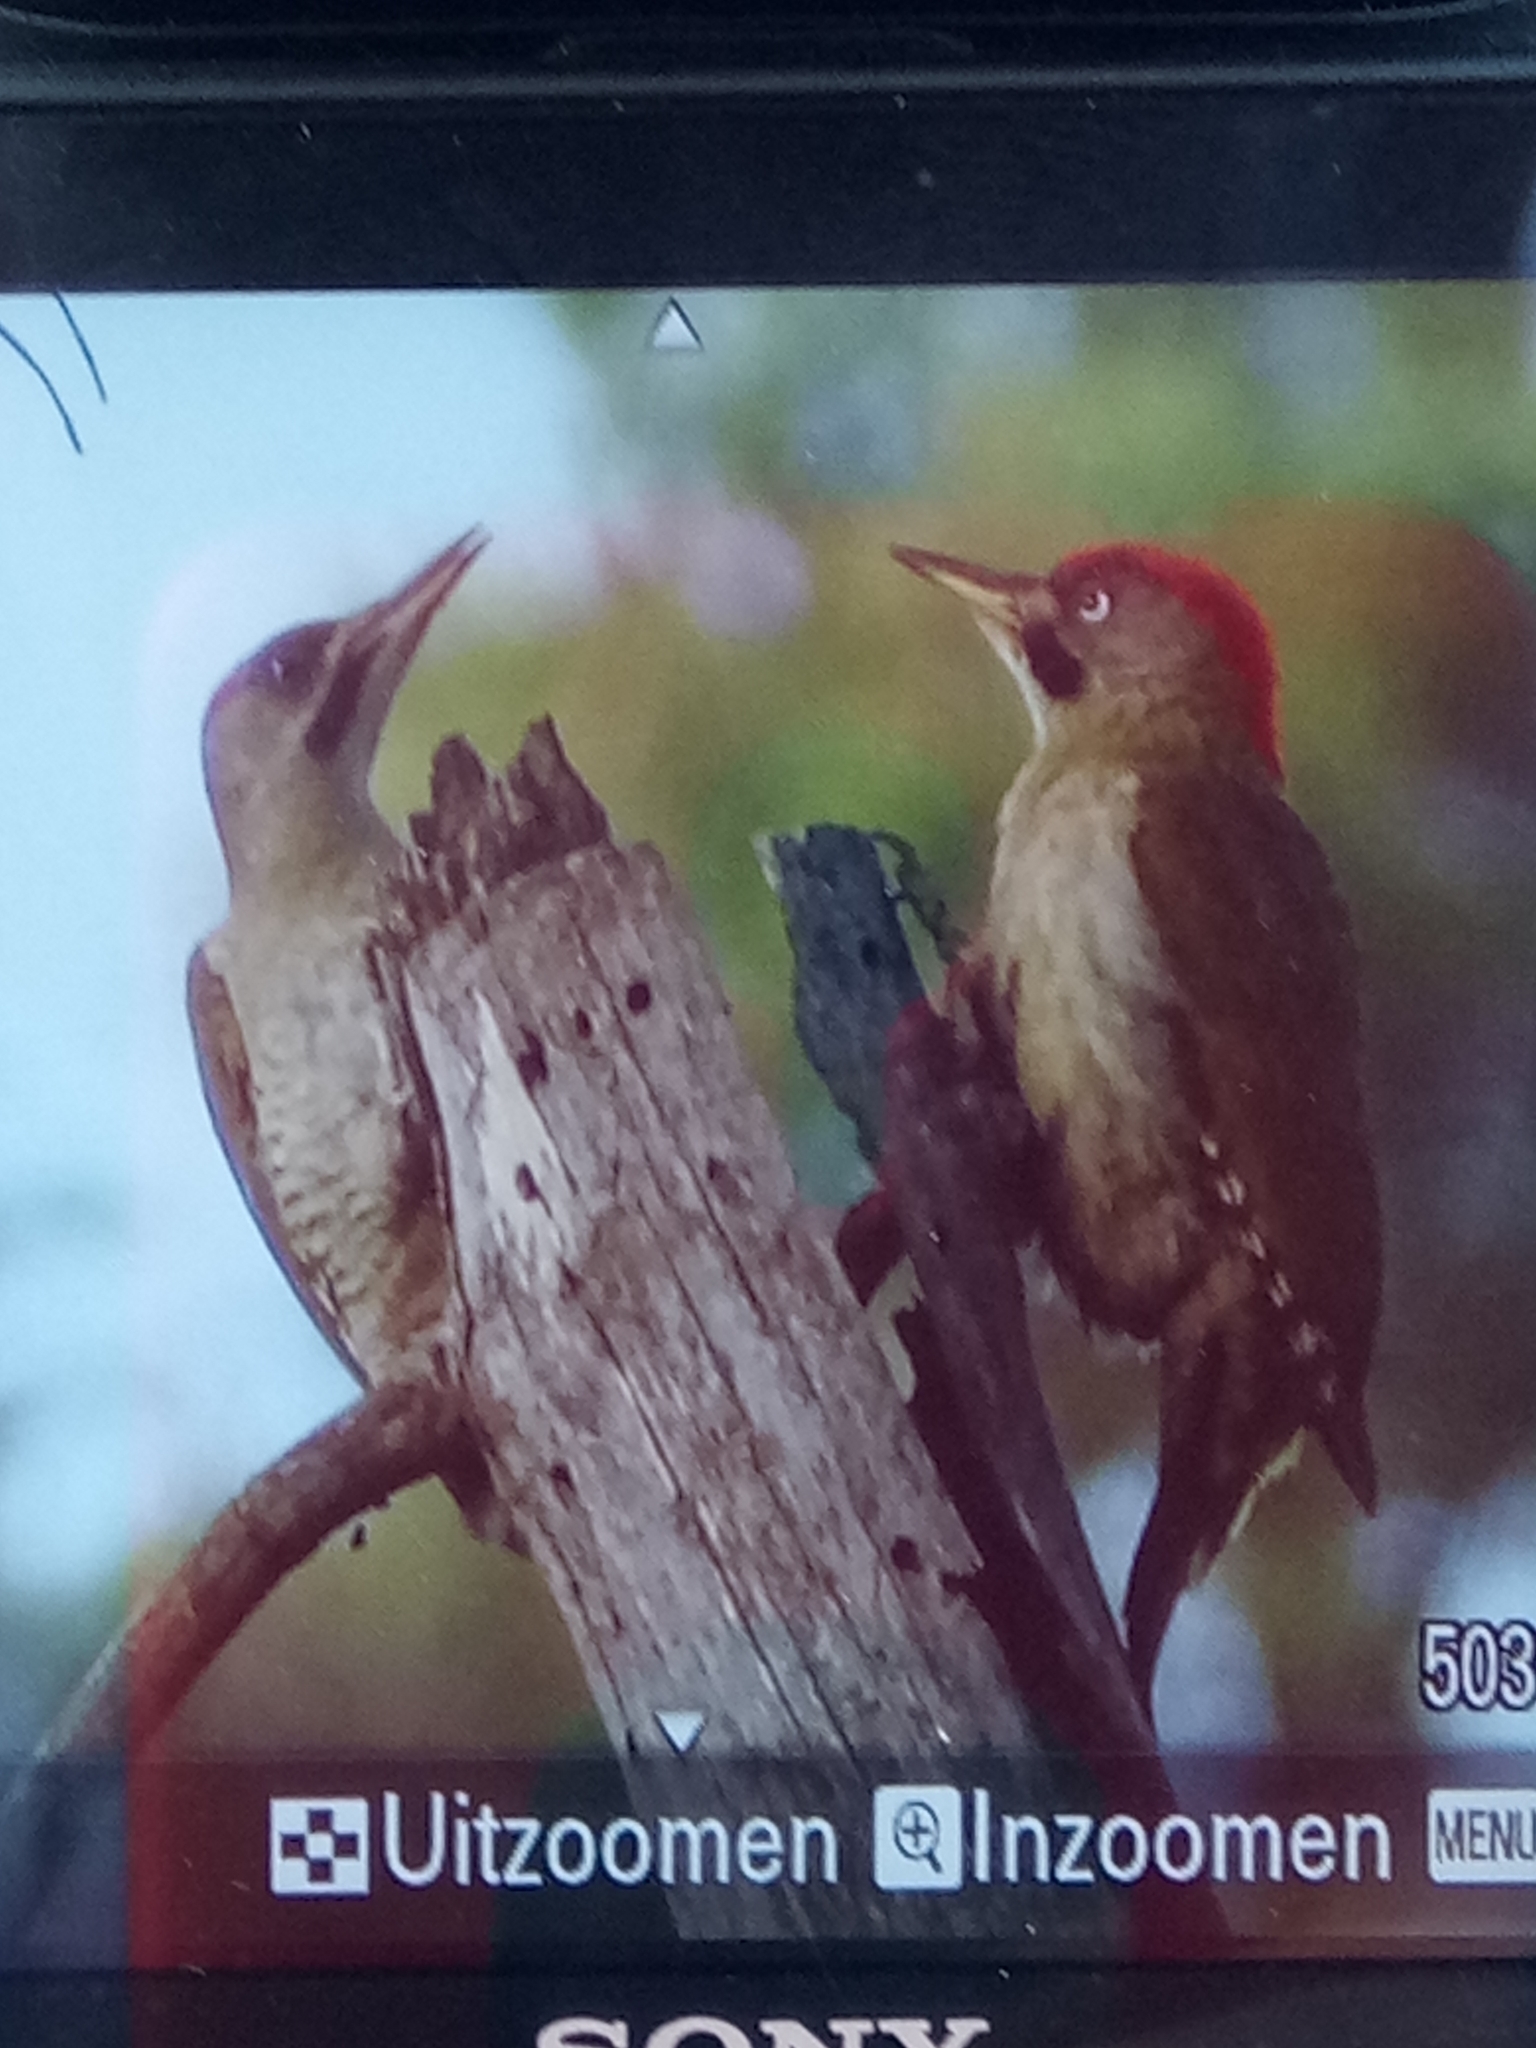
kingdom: Animalia
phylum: Chordata
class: Aves
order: Piciformes
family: Picidae
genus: Picus
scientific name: Picus vaillantii
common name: Levaillant's woodpecker
